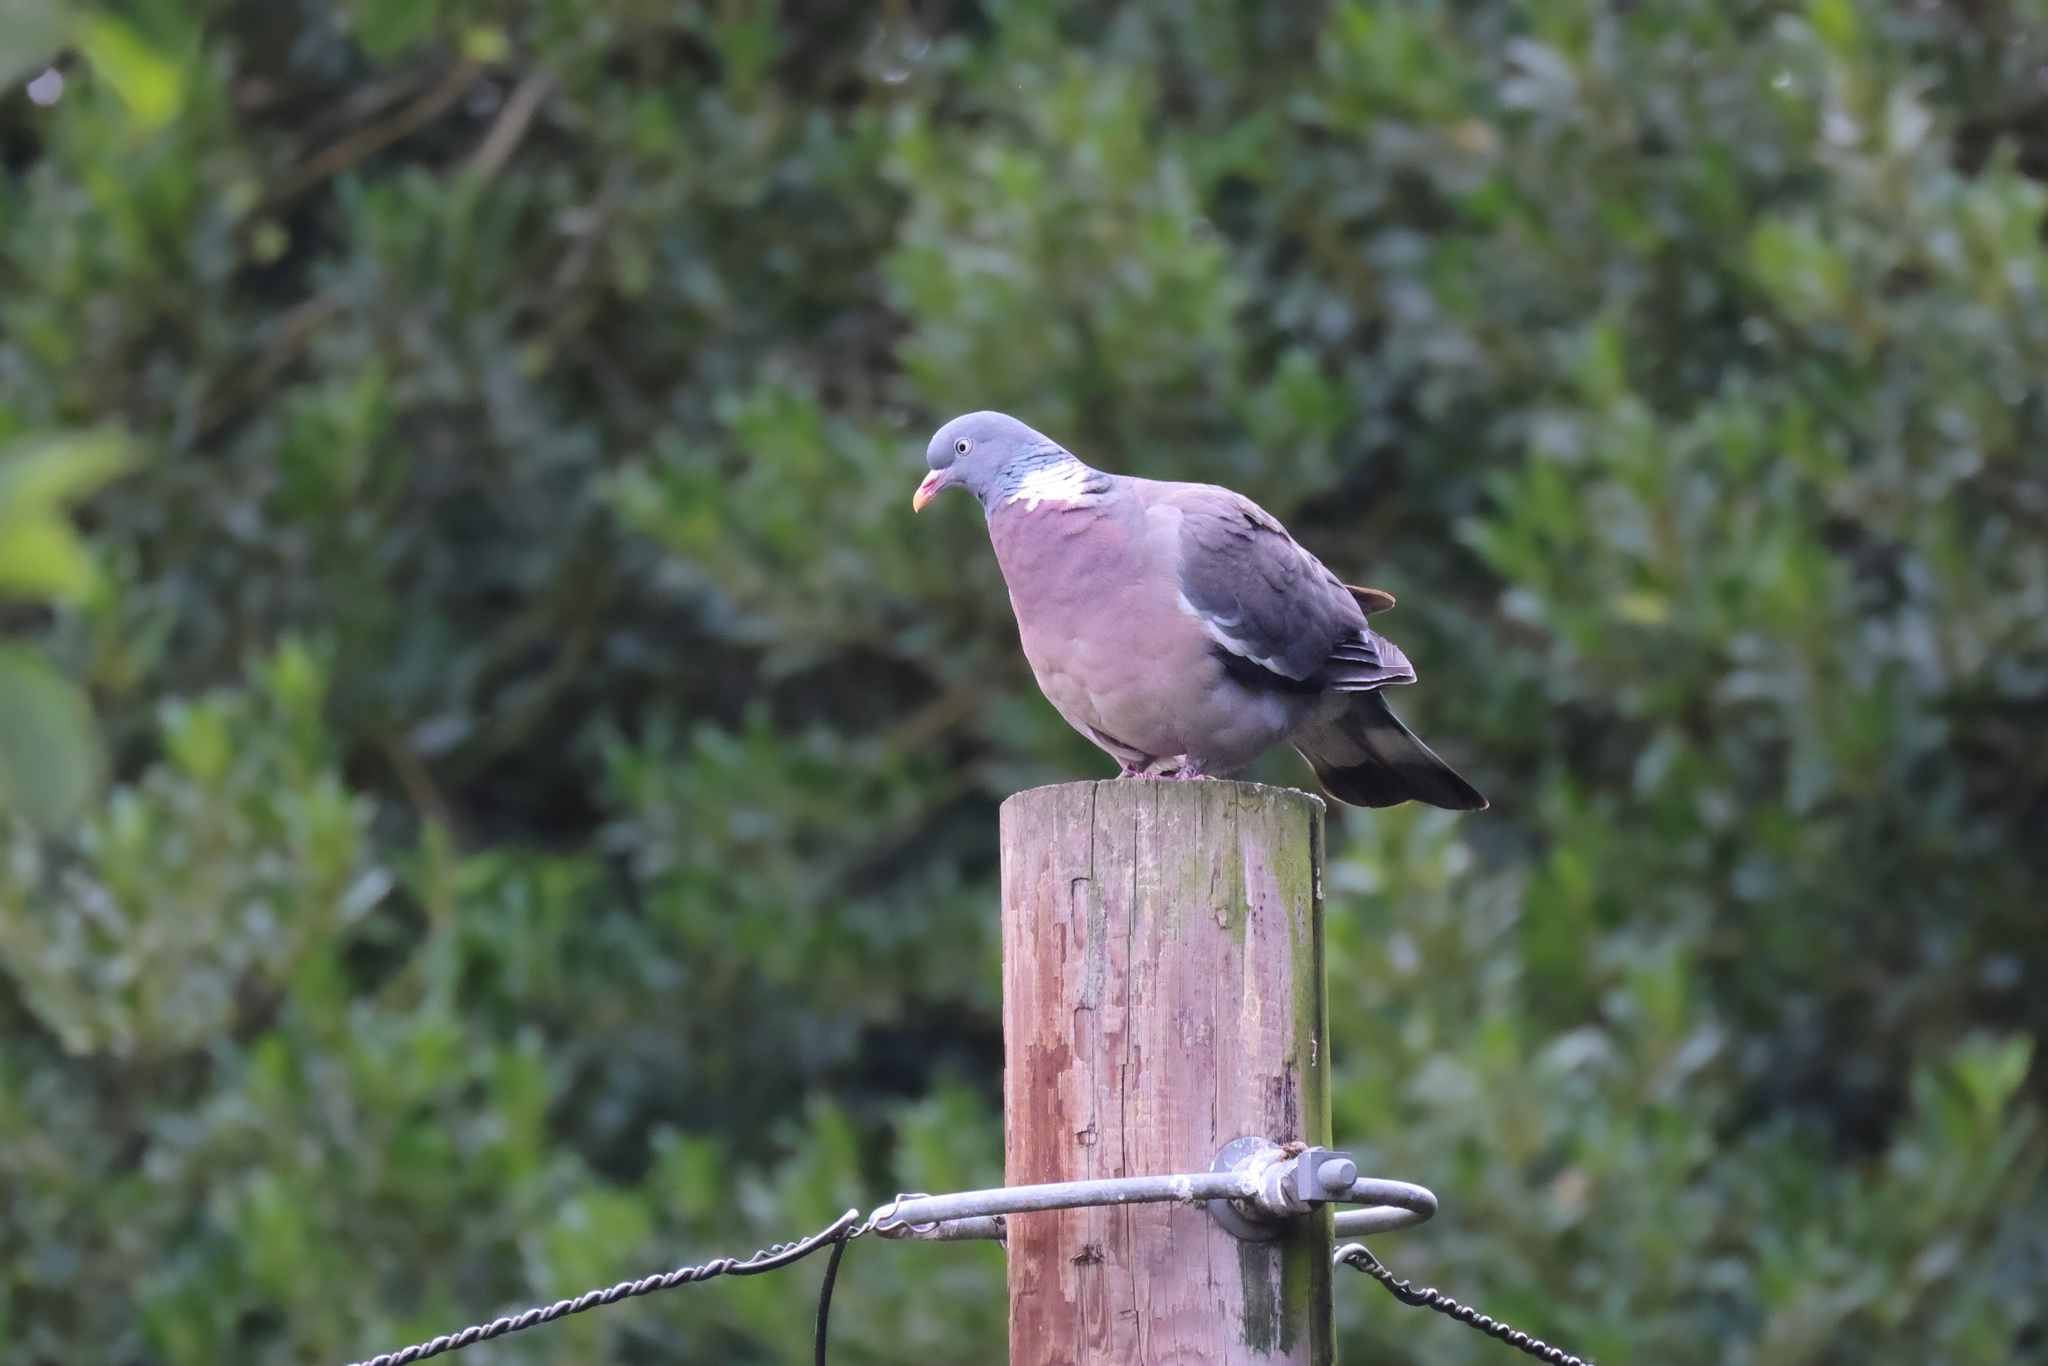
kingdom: Animalia
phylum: Chordata
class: Aves
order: Columbiformes
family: Columbidae
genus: Columba
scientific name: Columba palumbus
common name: Common wood pigeon
